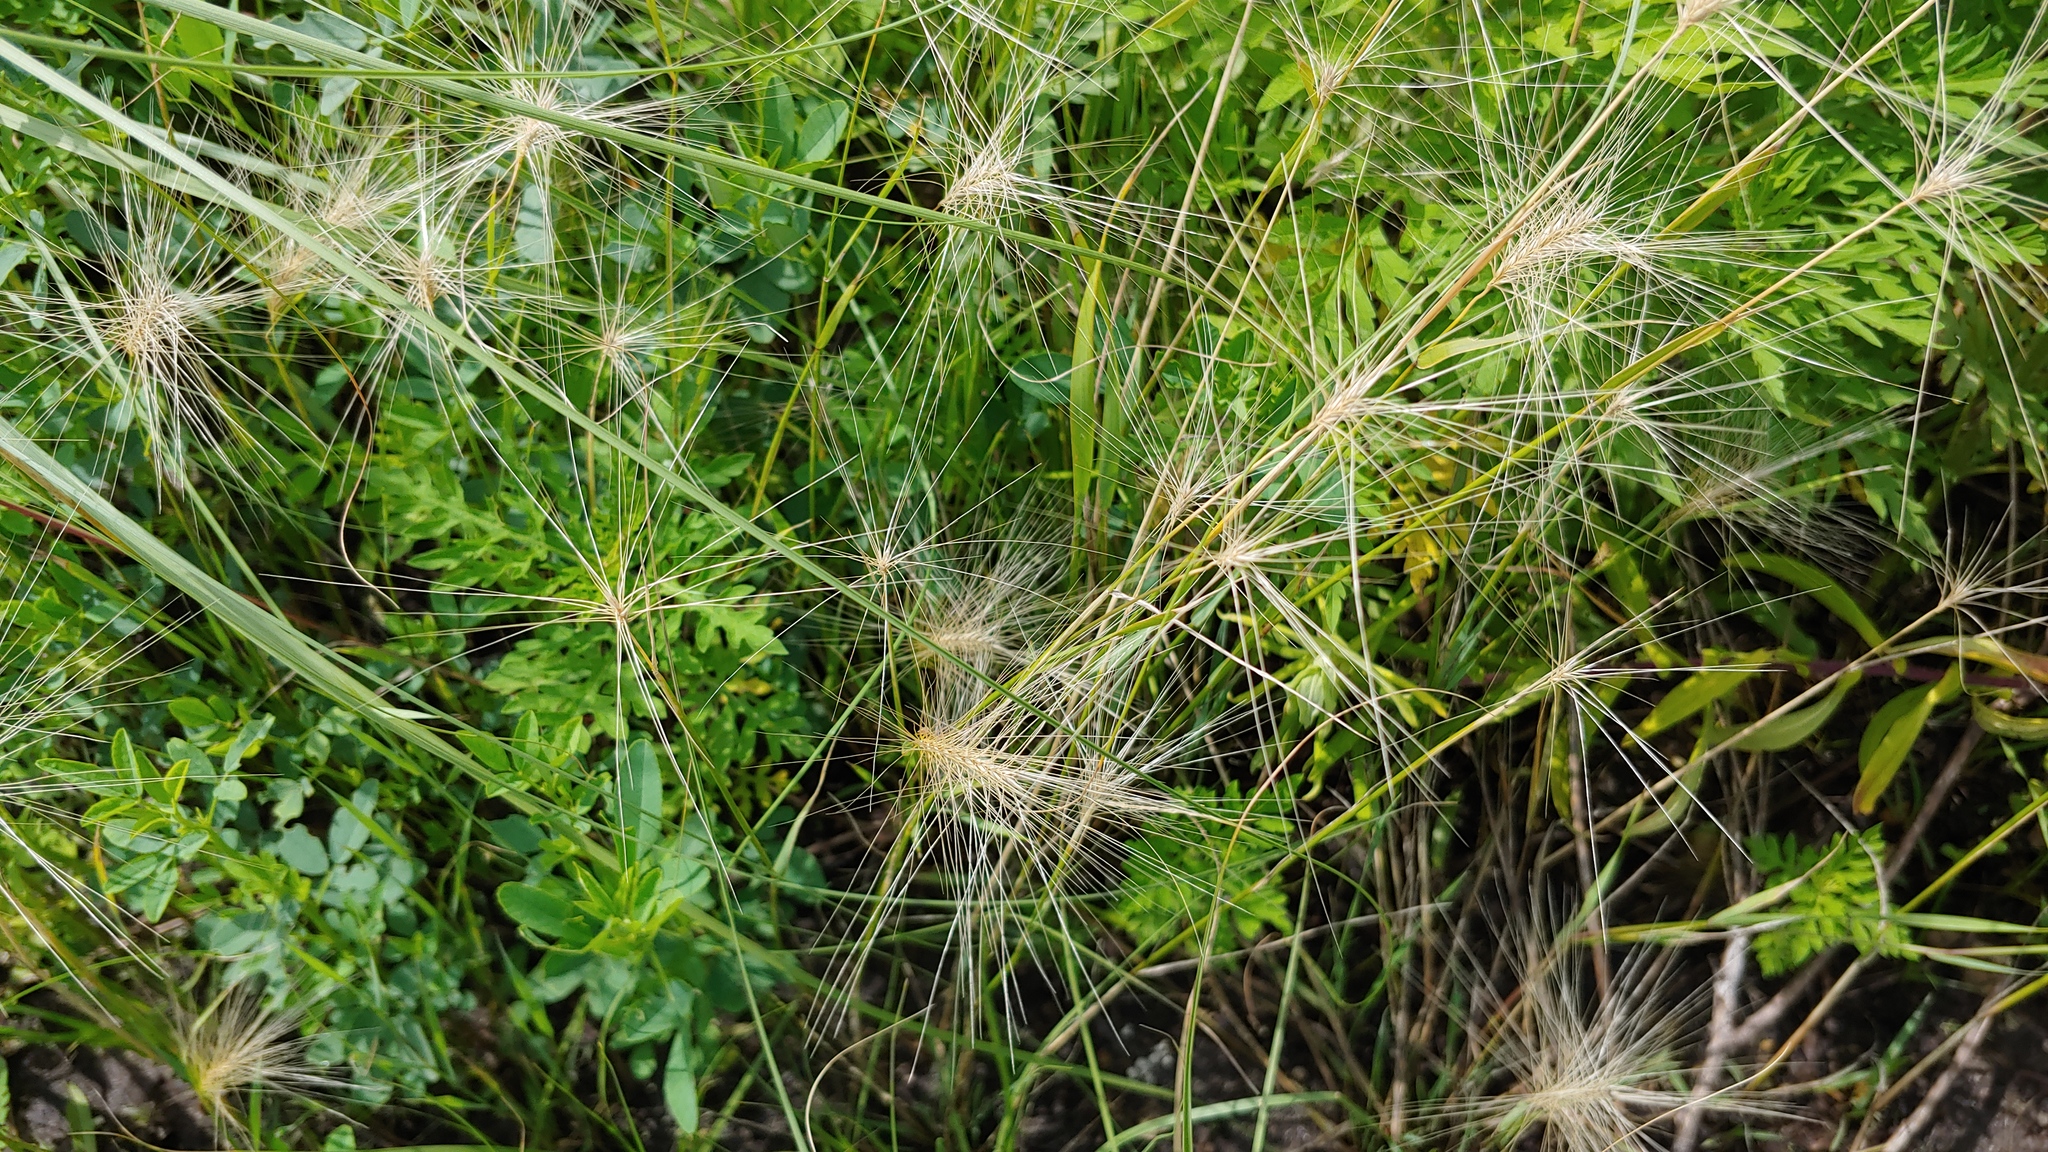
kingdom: Plantae
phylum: Tracheophyta
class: Liliopsida
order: Poales
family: Poaceae
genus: Hordeum
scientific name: Hordeum jubatum
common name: Foxtail barley
